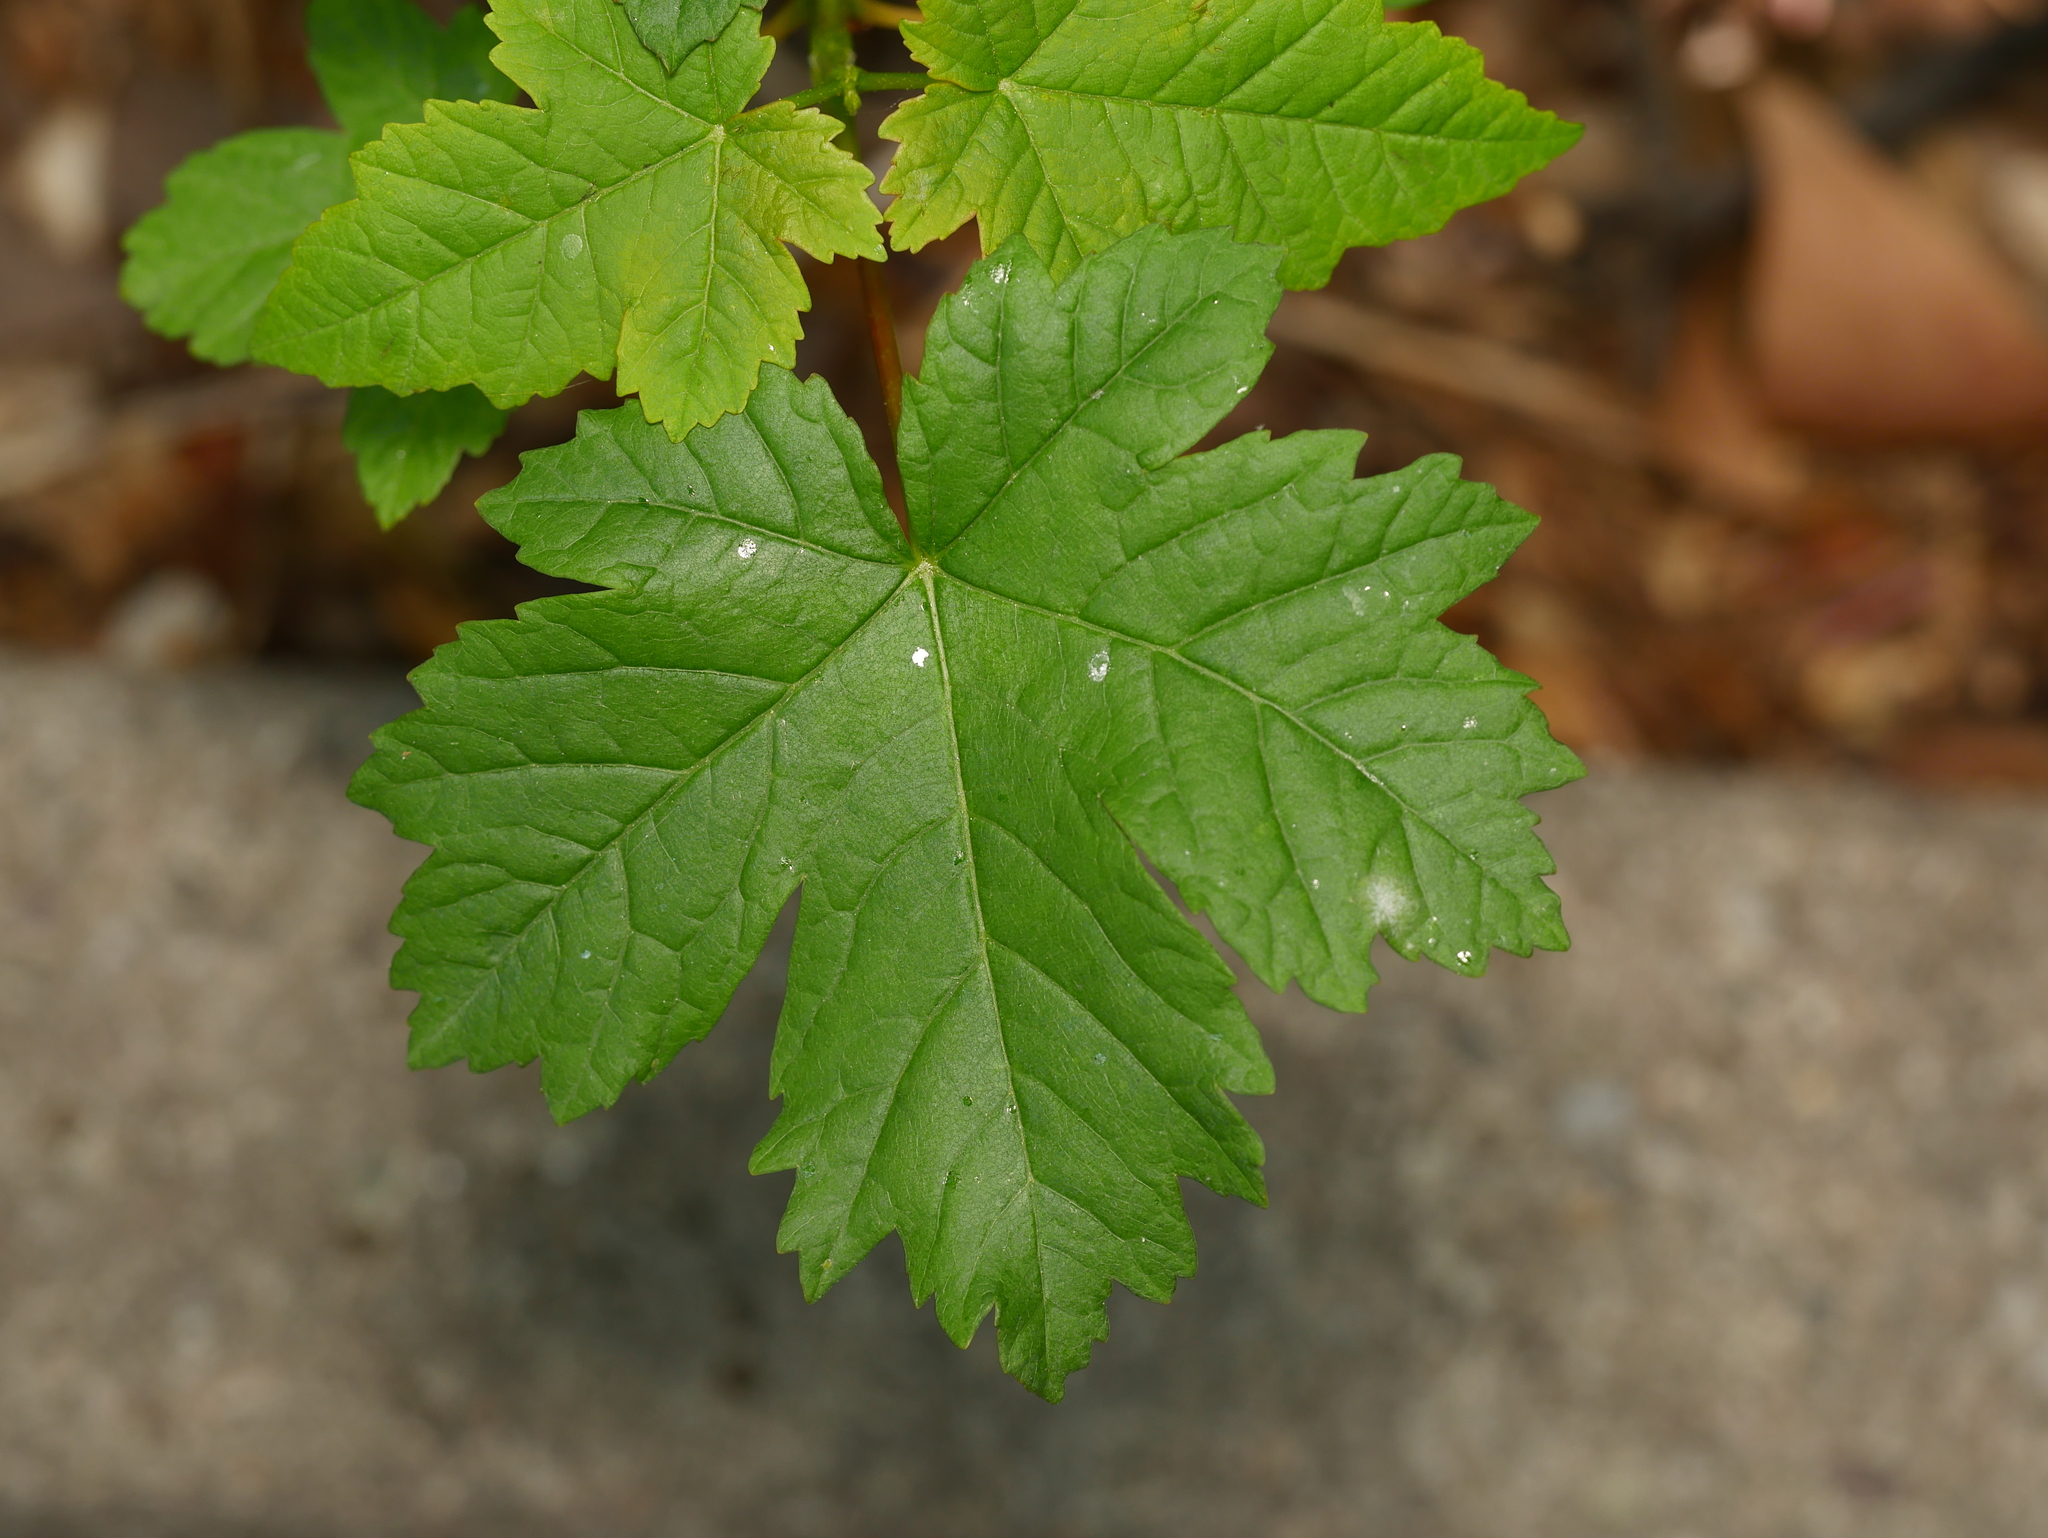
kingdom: Plantae
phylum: Tracheophyta
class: Magnoliopsida
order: Sapindales
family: Sapindaceae
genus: Acer
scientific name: Acer pseudoplatanus
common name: Sycamore
